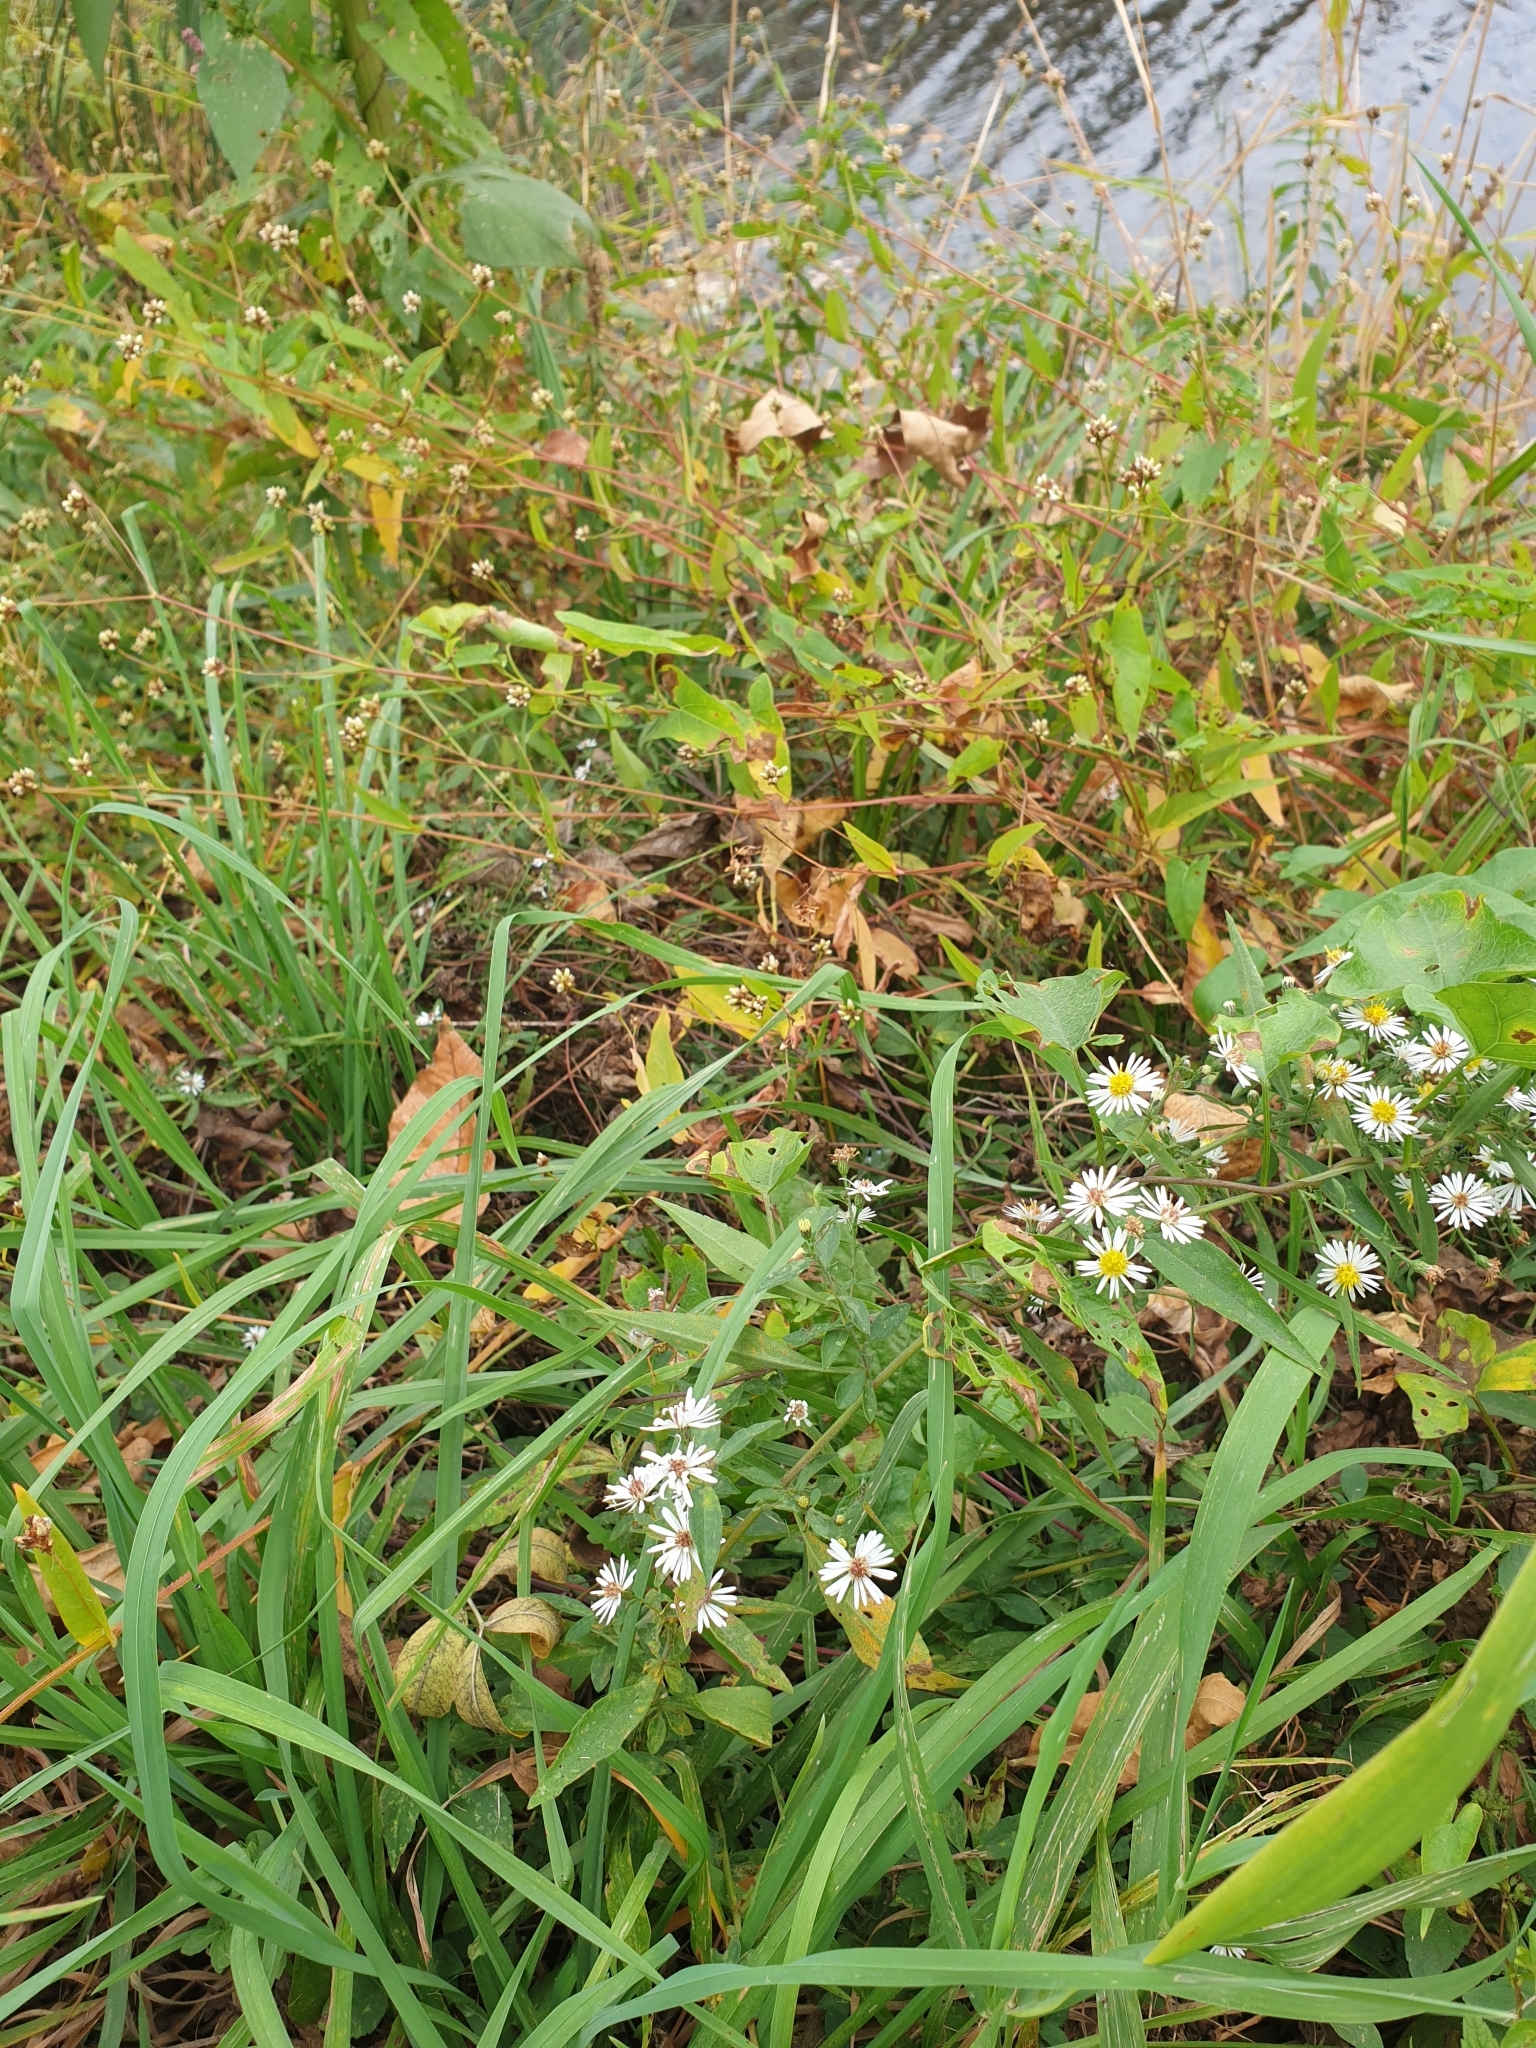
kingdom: Plantae
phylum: Tracheophyta
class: Magnoliopsida
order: Asterales
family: Asteraceae
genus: Symphyotrichum
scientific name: Symphyotrichum ontarionis
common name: Bottomland aster
